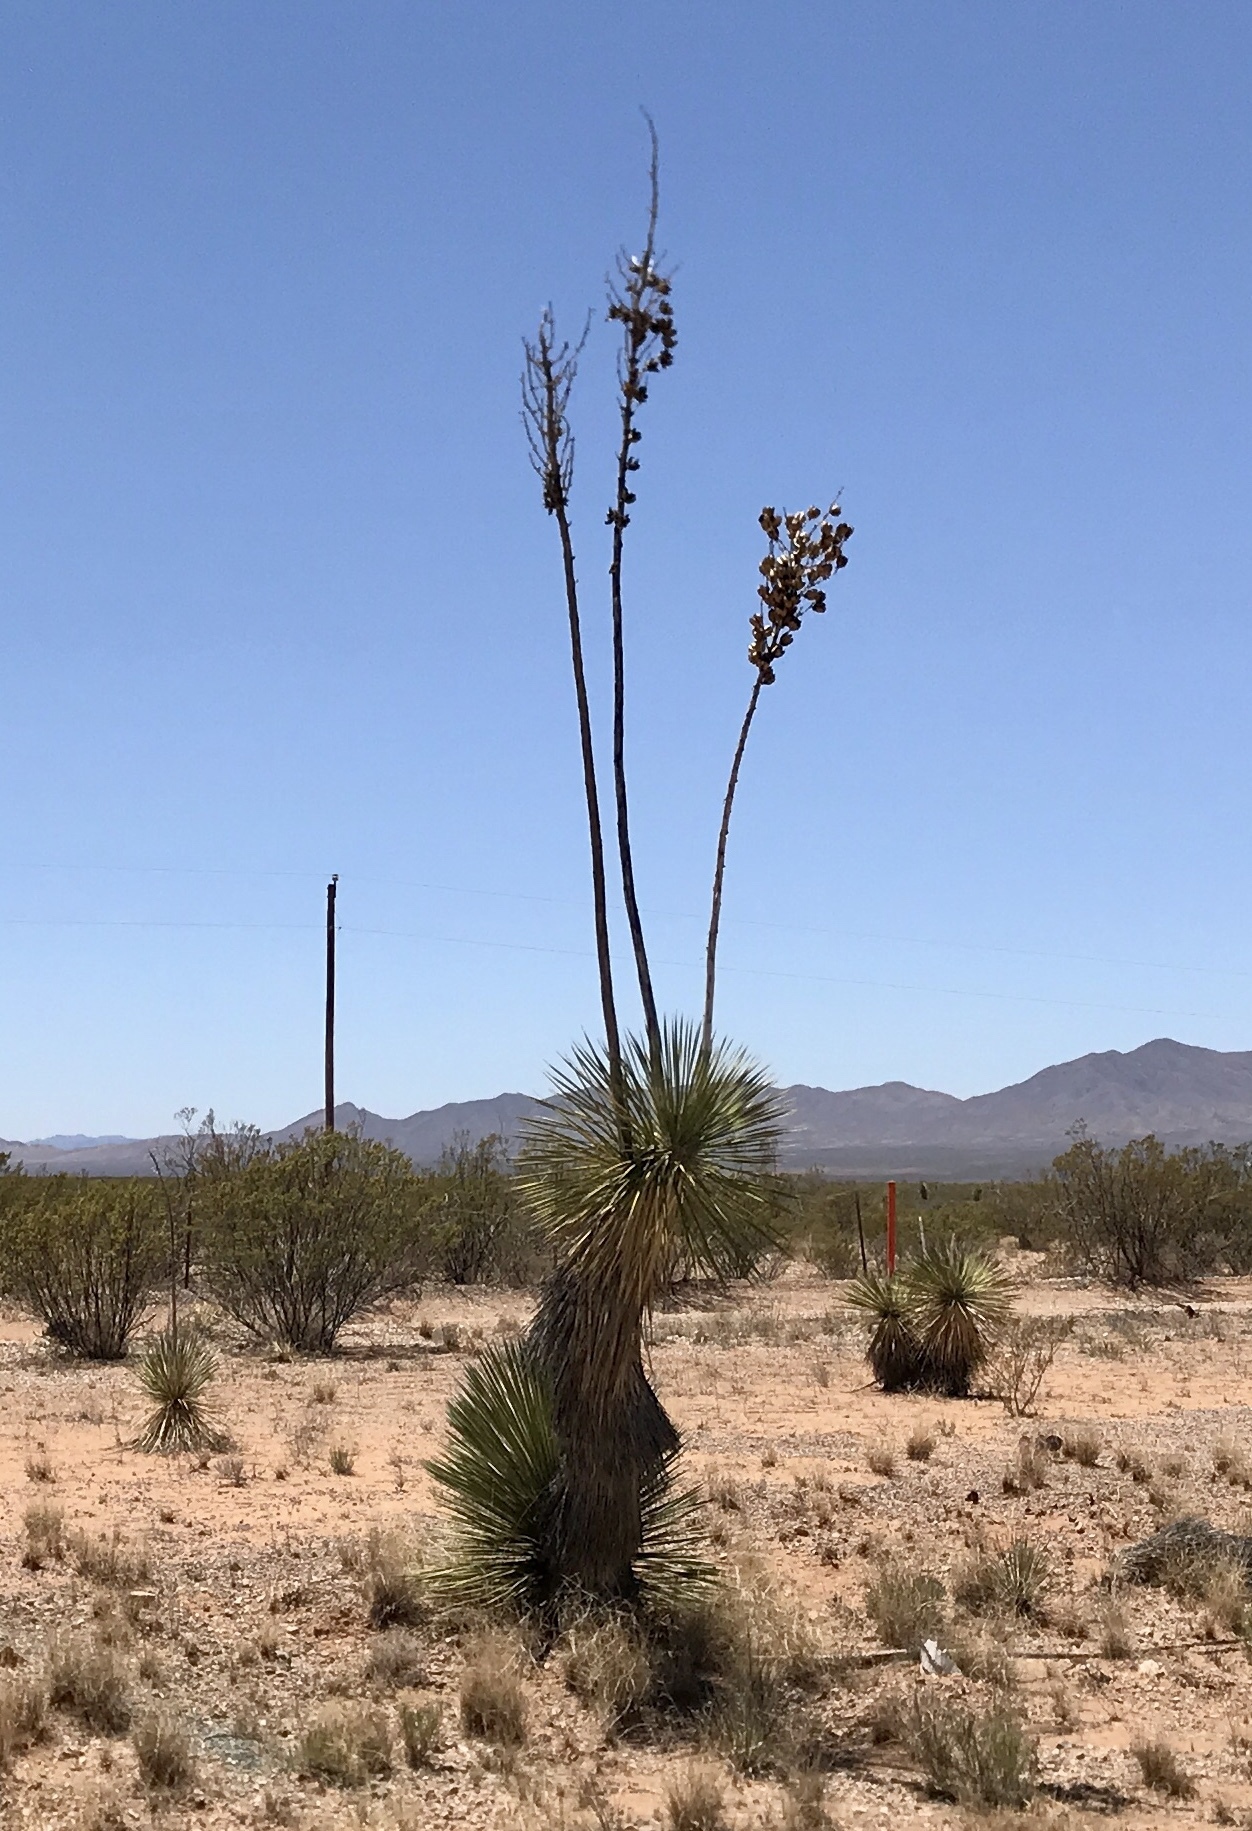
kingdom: Plantae
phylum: Tracheophyta
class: Liliopsida
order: Asparagales
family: Asparagaceae
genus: Yucca
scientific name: Yucca elata
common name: Palmella
